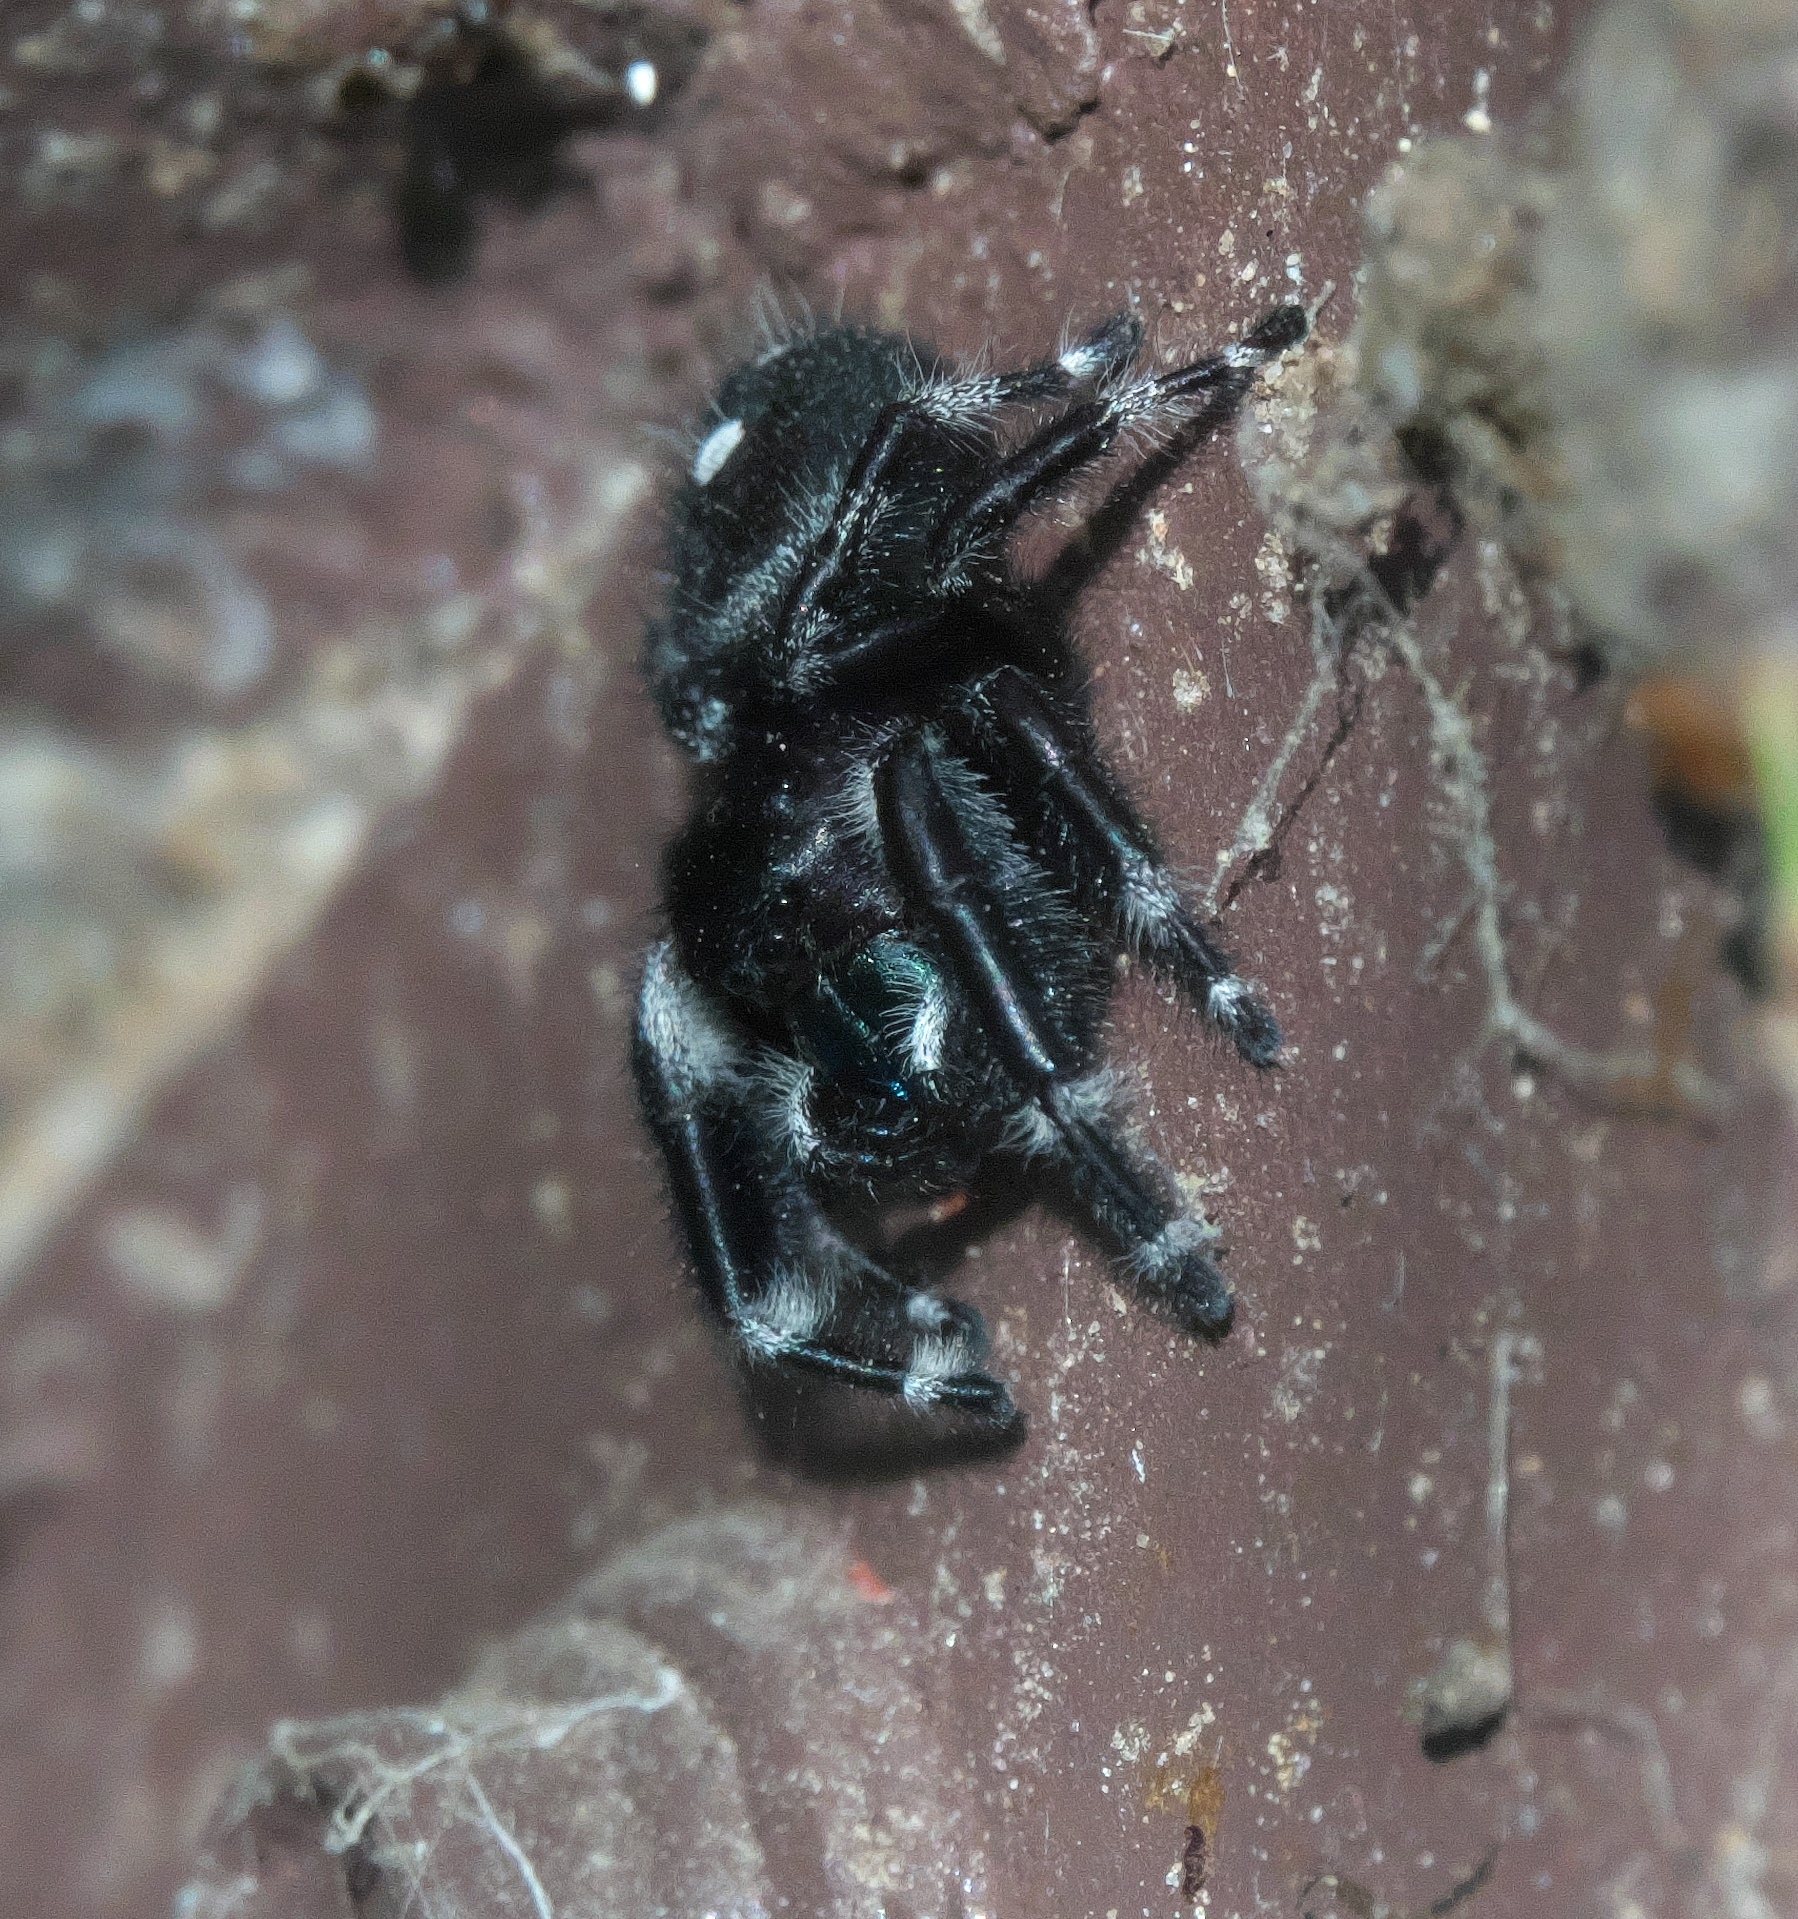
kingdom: Animalia
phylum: Arthropoda
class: Arachnida
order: Araneae
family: Salticidae
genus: Phidippus
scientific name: Phidippus audax
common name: Bold jumper
